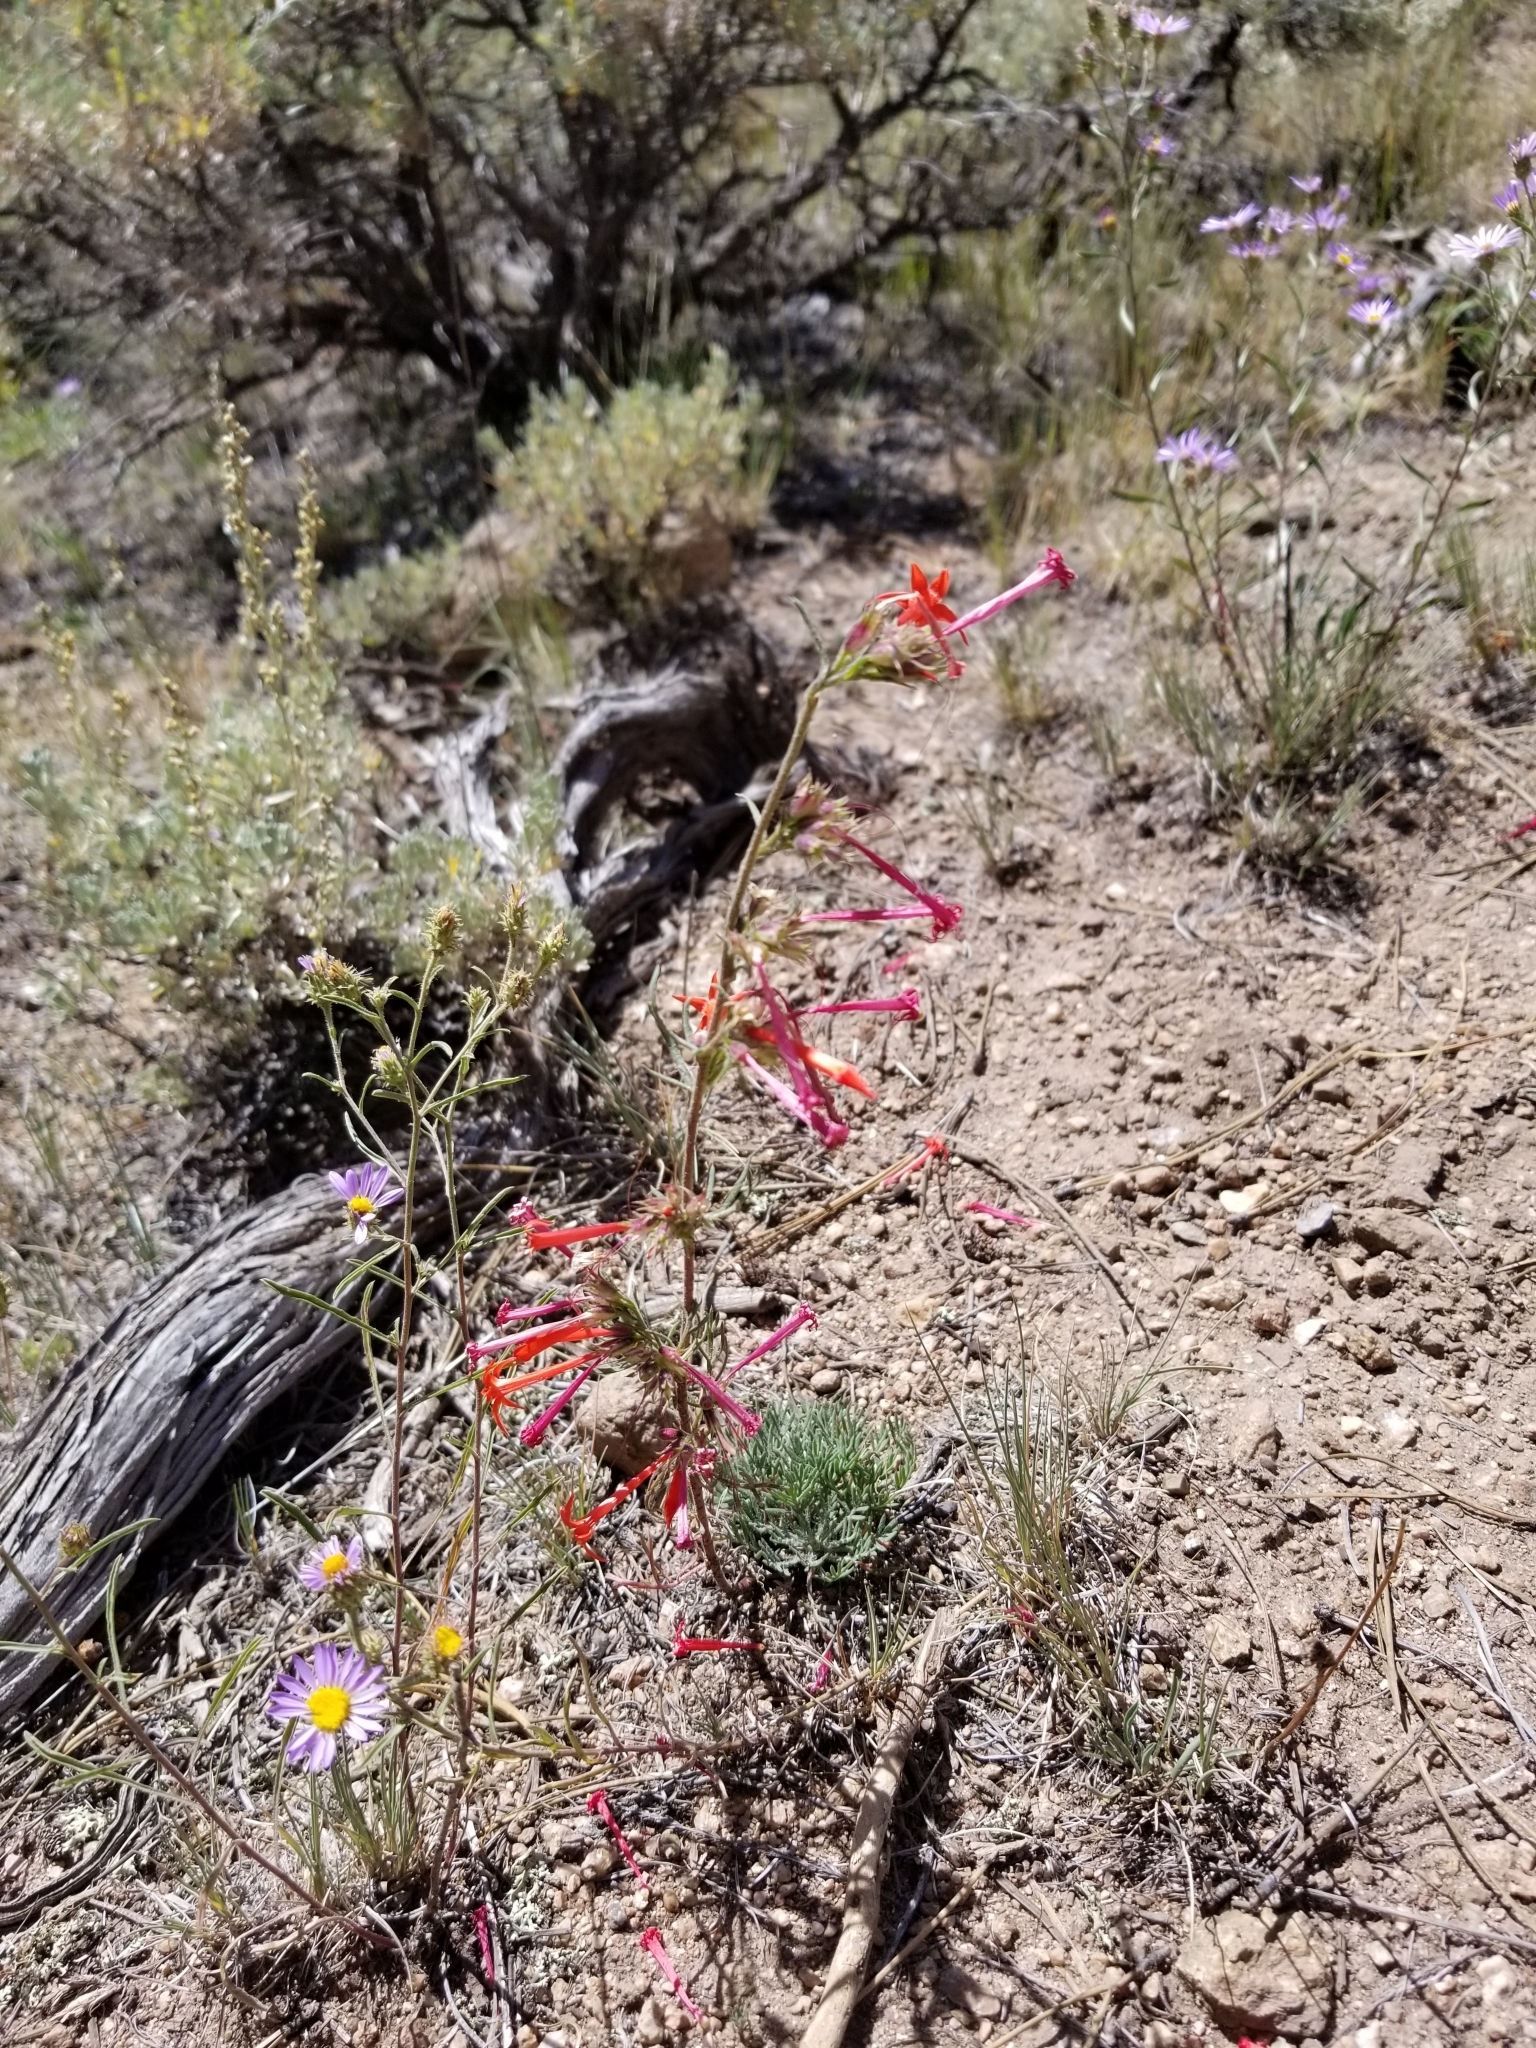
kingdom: Plantae
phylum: Tracheophyta
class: Magnoliopsida
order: Ericales
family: Polemoniaceae
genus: Ipomopsis
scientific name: Ipomopsis aggregata
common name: Scarlet gilia
